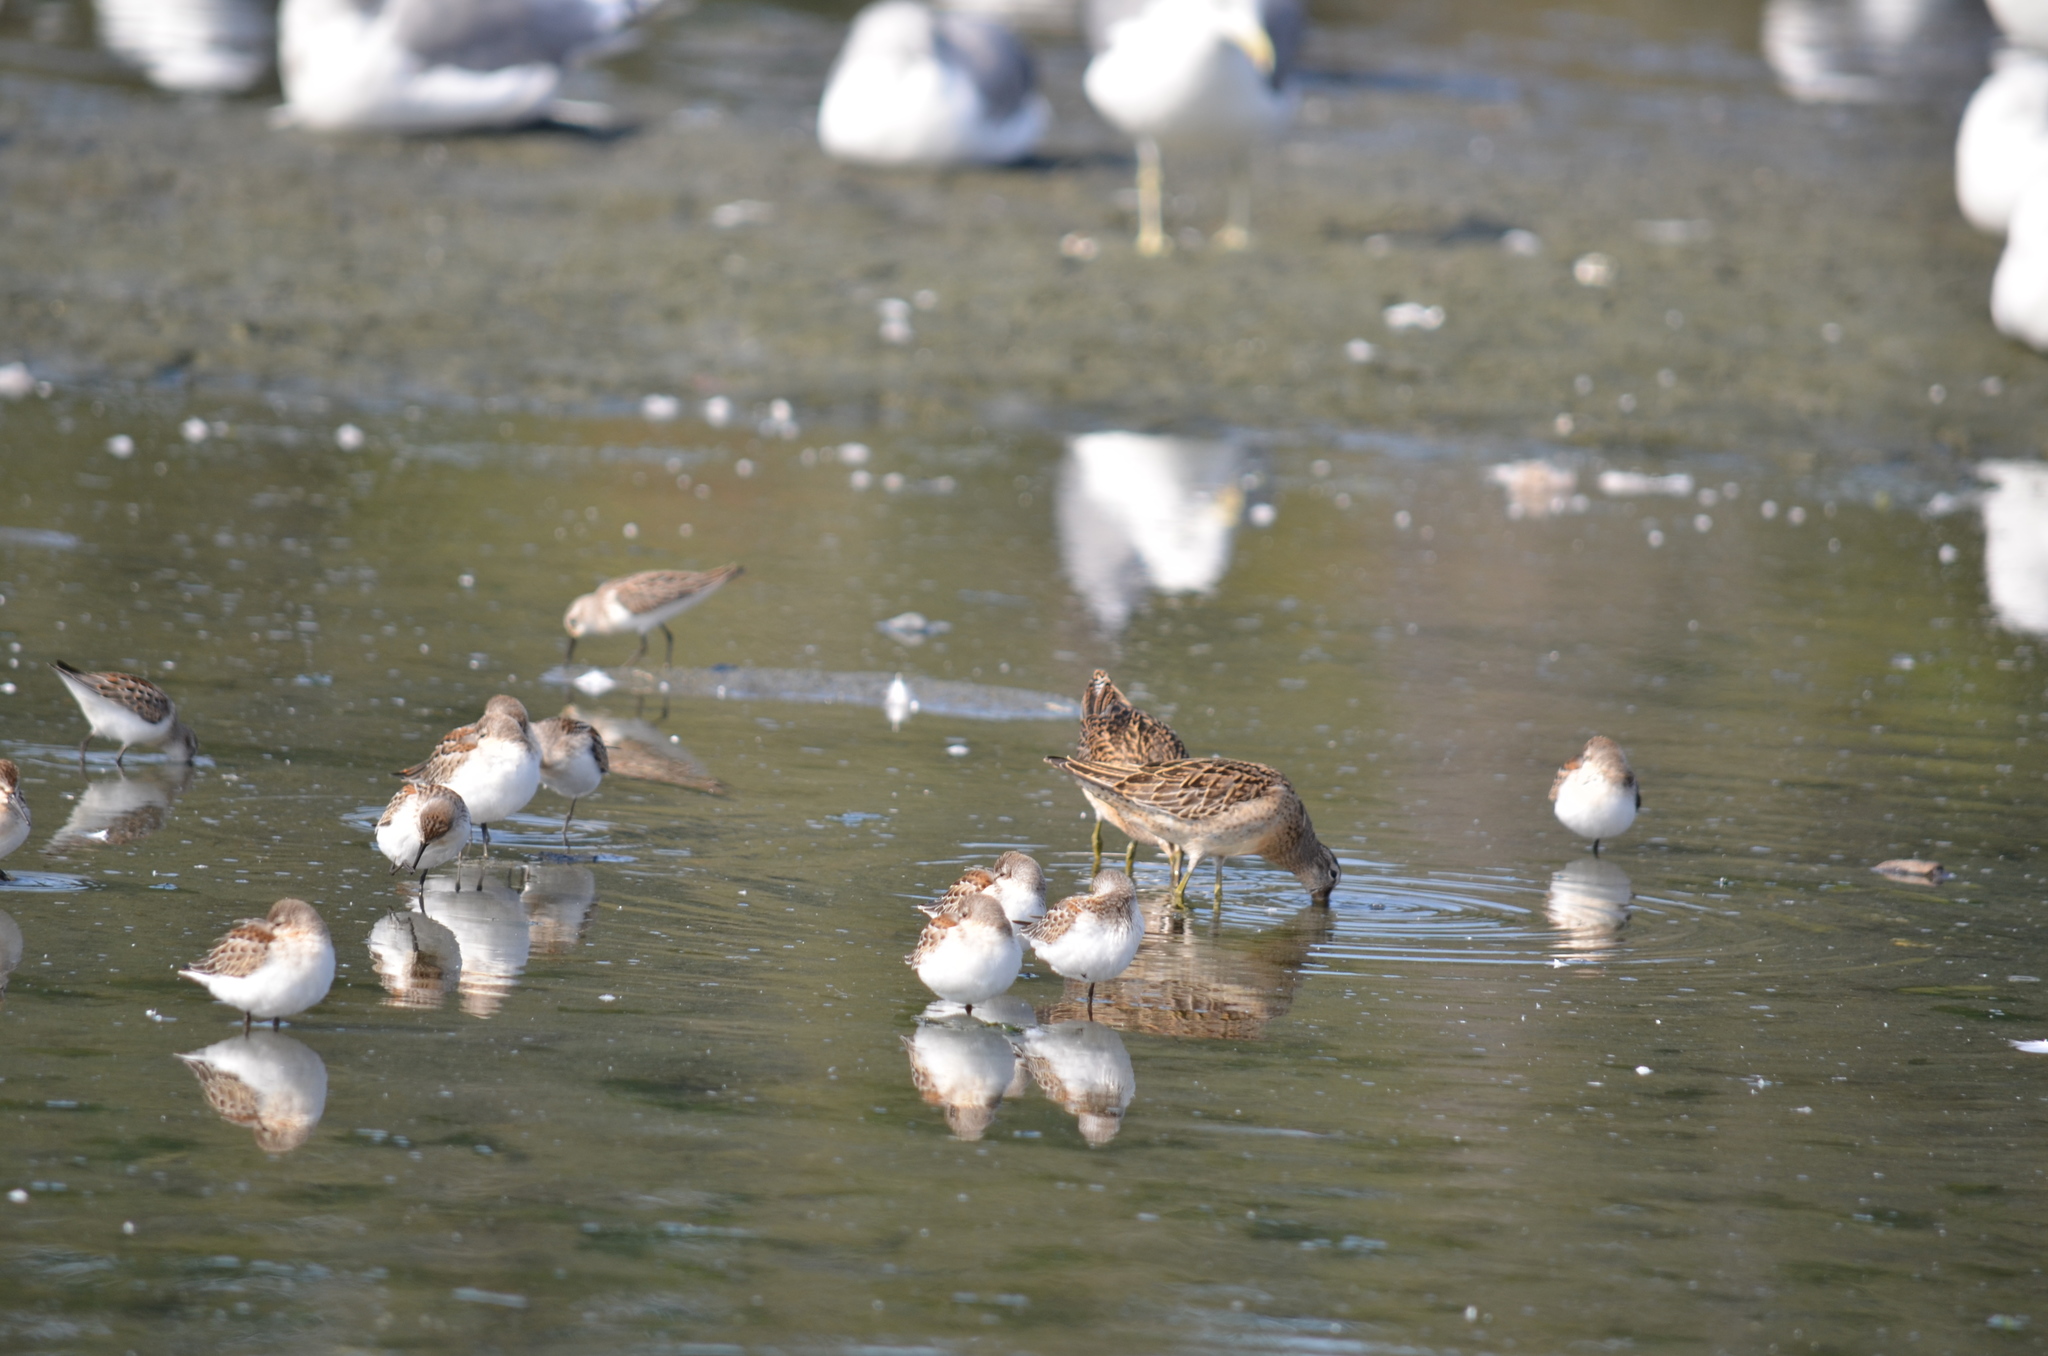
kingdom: Animalia
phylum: Chordata
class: Aves
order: Charadriiformes
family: Scolopacidae
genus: Calidris
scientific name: Calidris pusilla
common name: Semipalmated sandpiper
